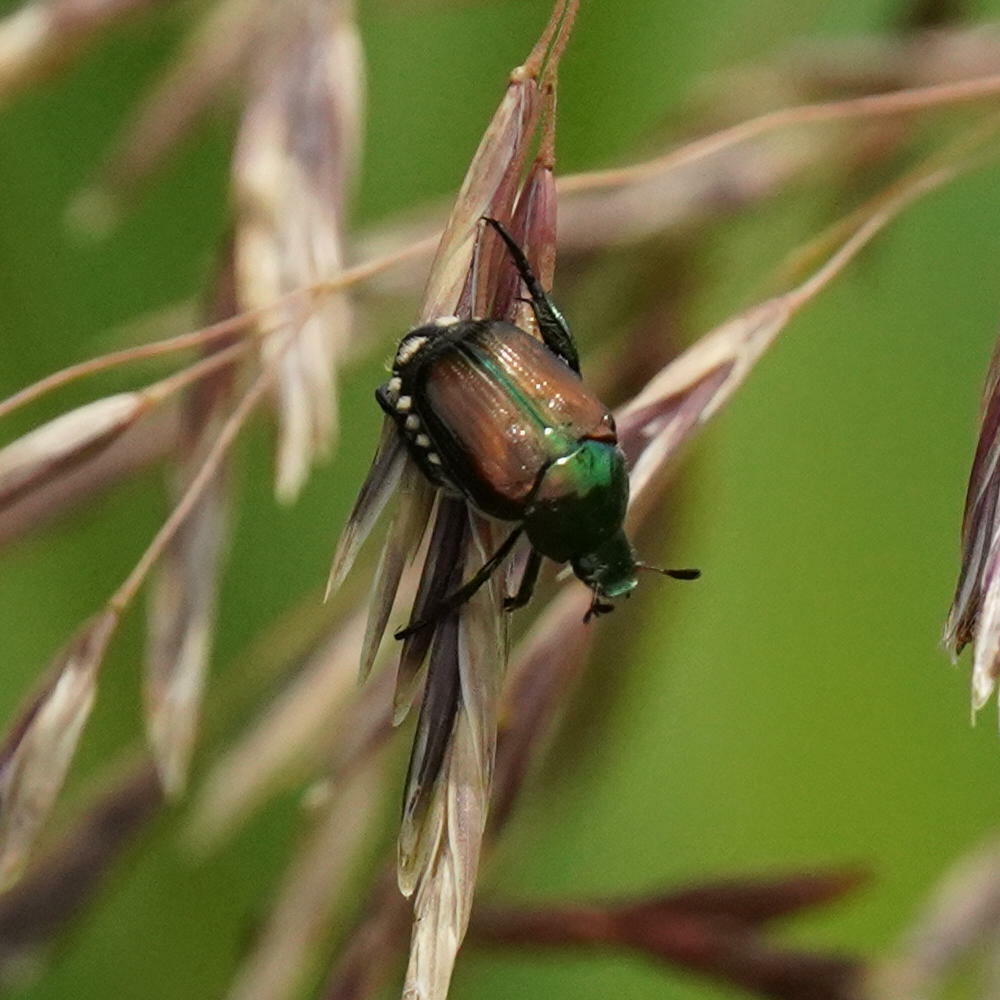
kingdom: Animalia
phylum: Arthropoda
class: Insecta
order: Coleoptera
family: Scarabaeidae
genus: Popillia
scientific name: Popillia japonica
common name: Japanese beetle
